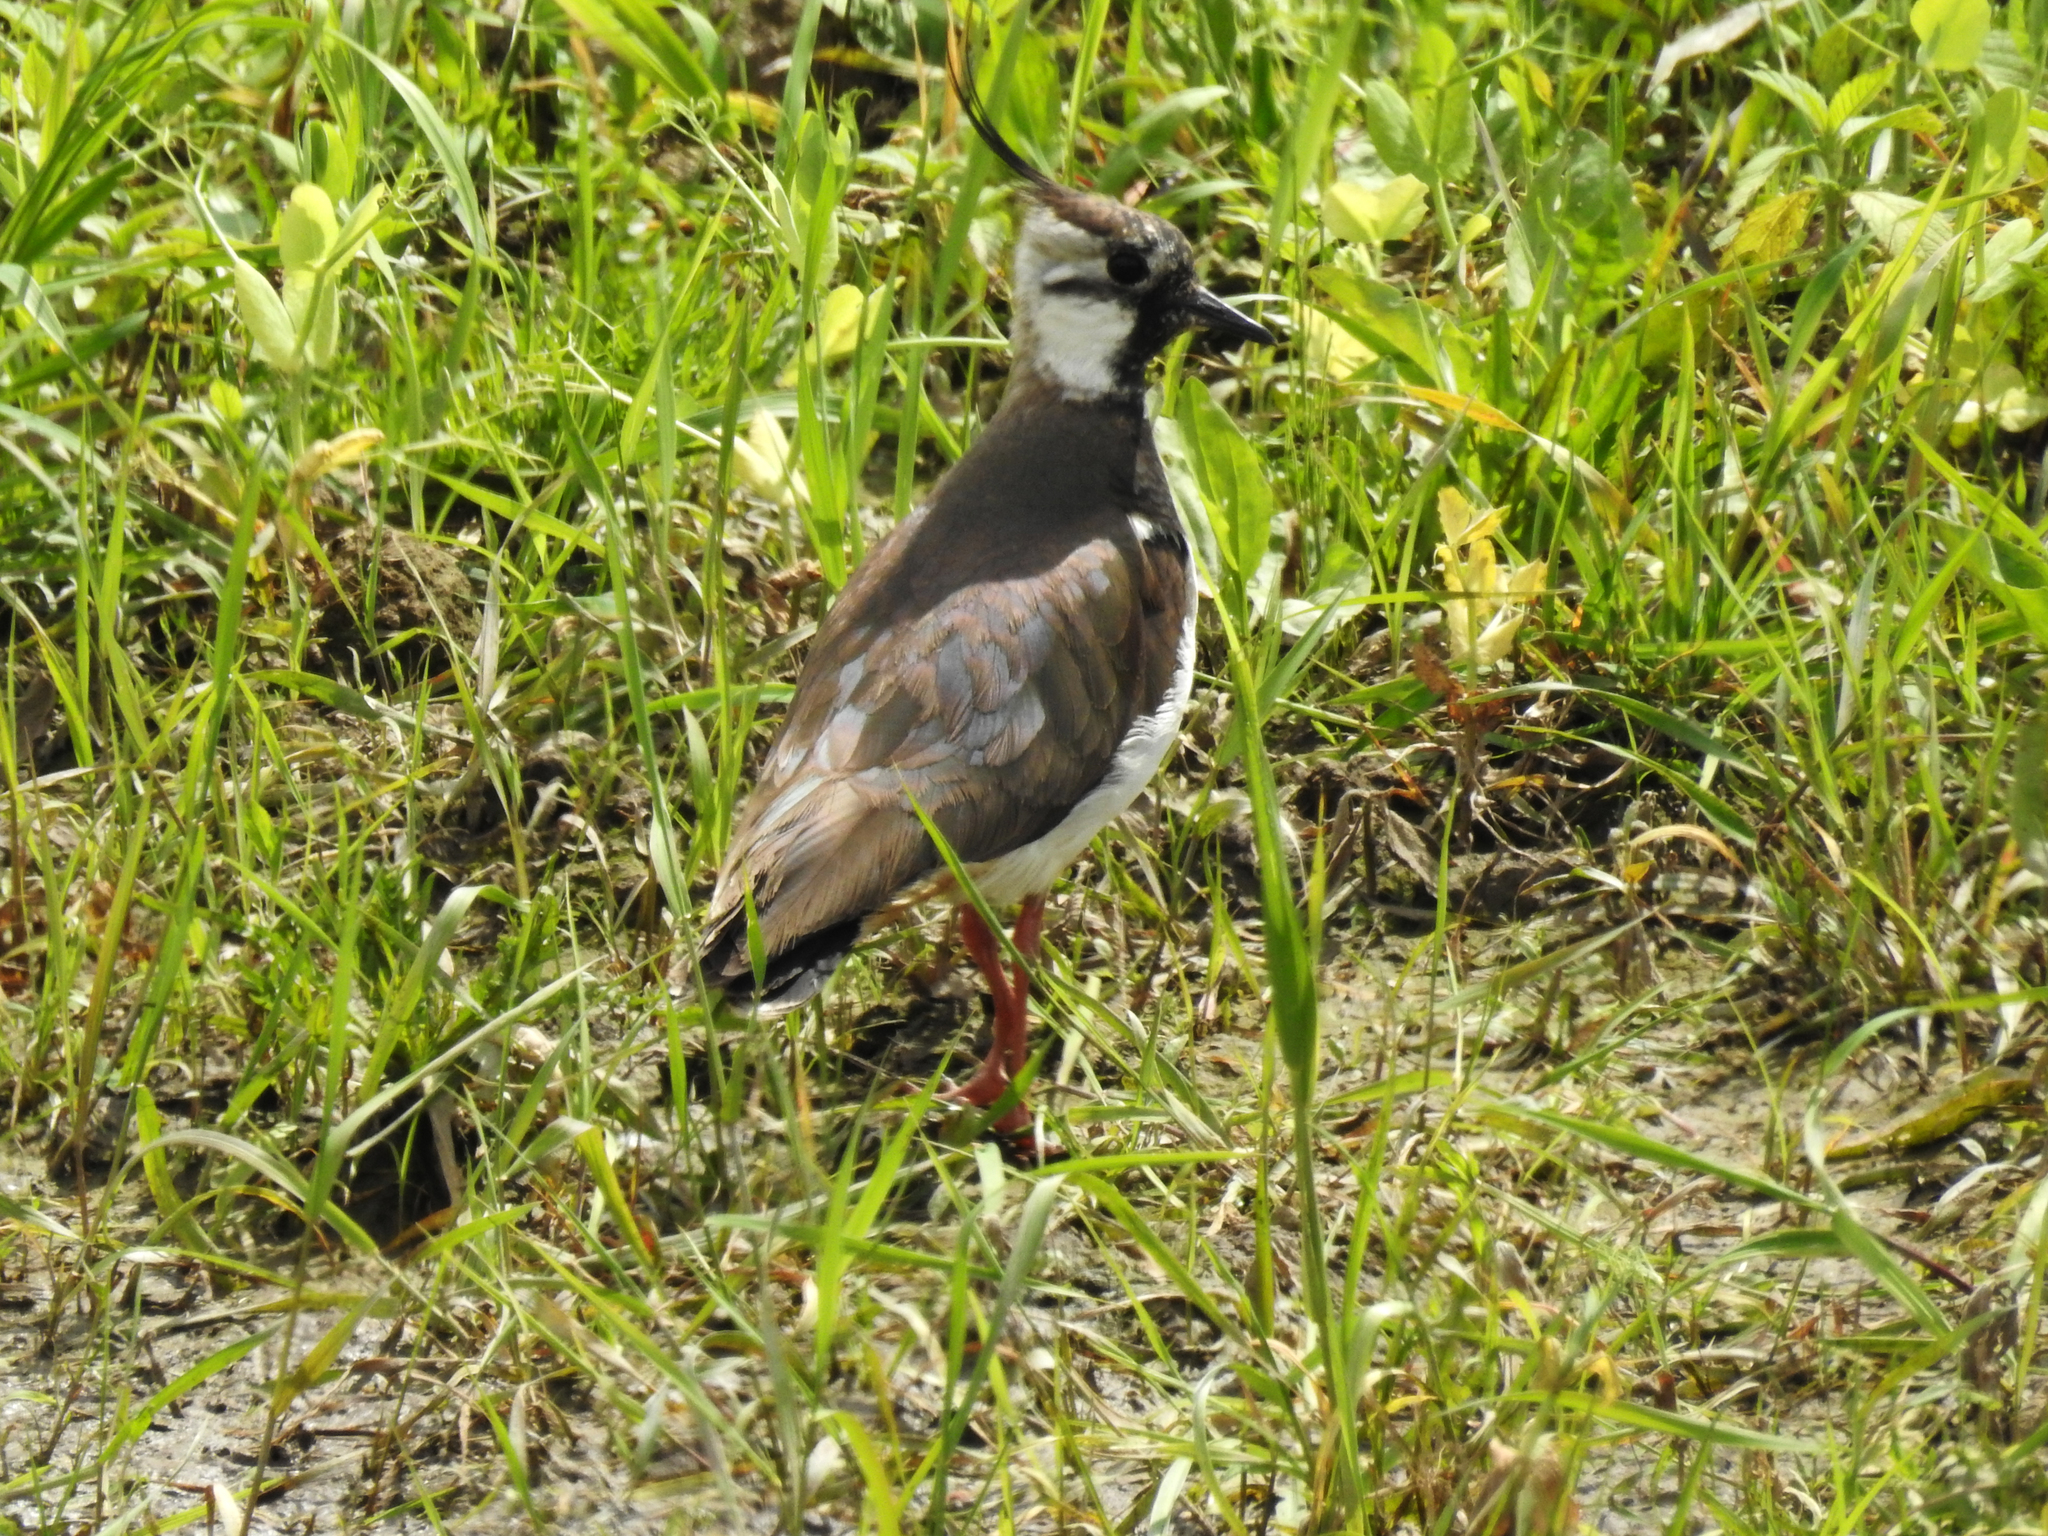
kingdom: Animalia
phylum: Chordata
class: Aves
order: Charadriiformes
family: Charadriidae
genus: Vanellus
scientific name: Vanellus vanellus
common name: Northern lapwing
